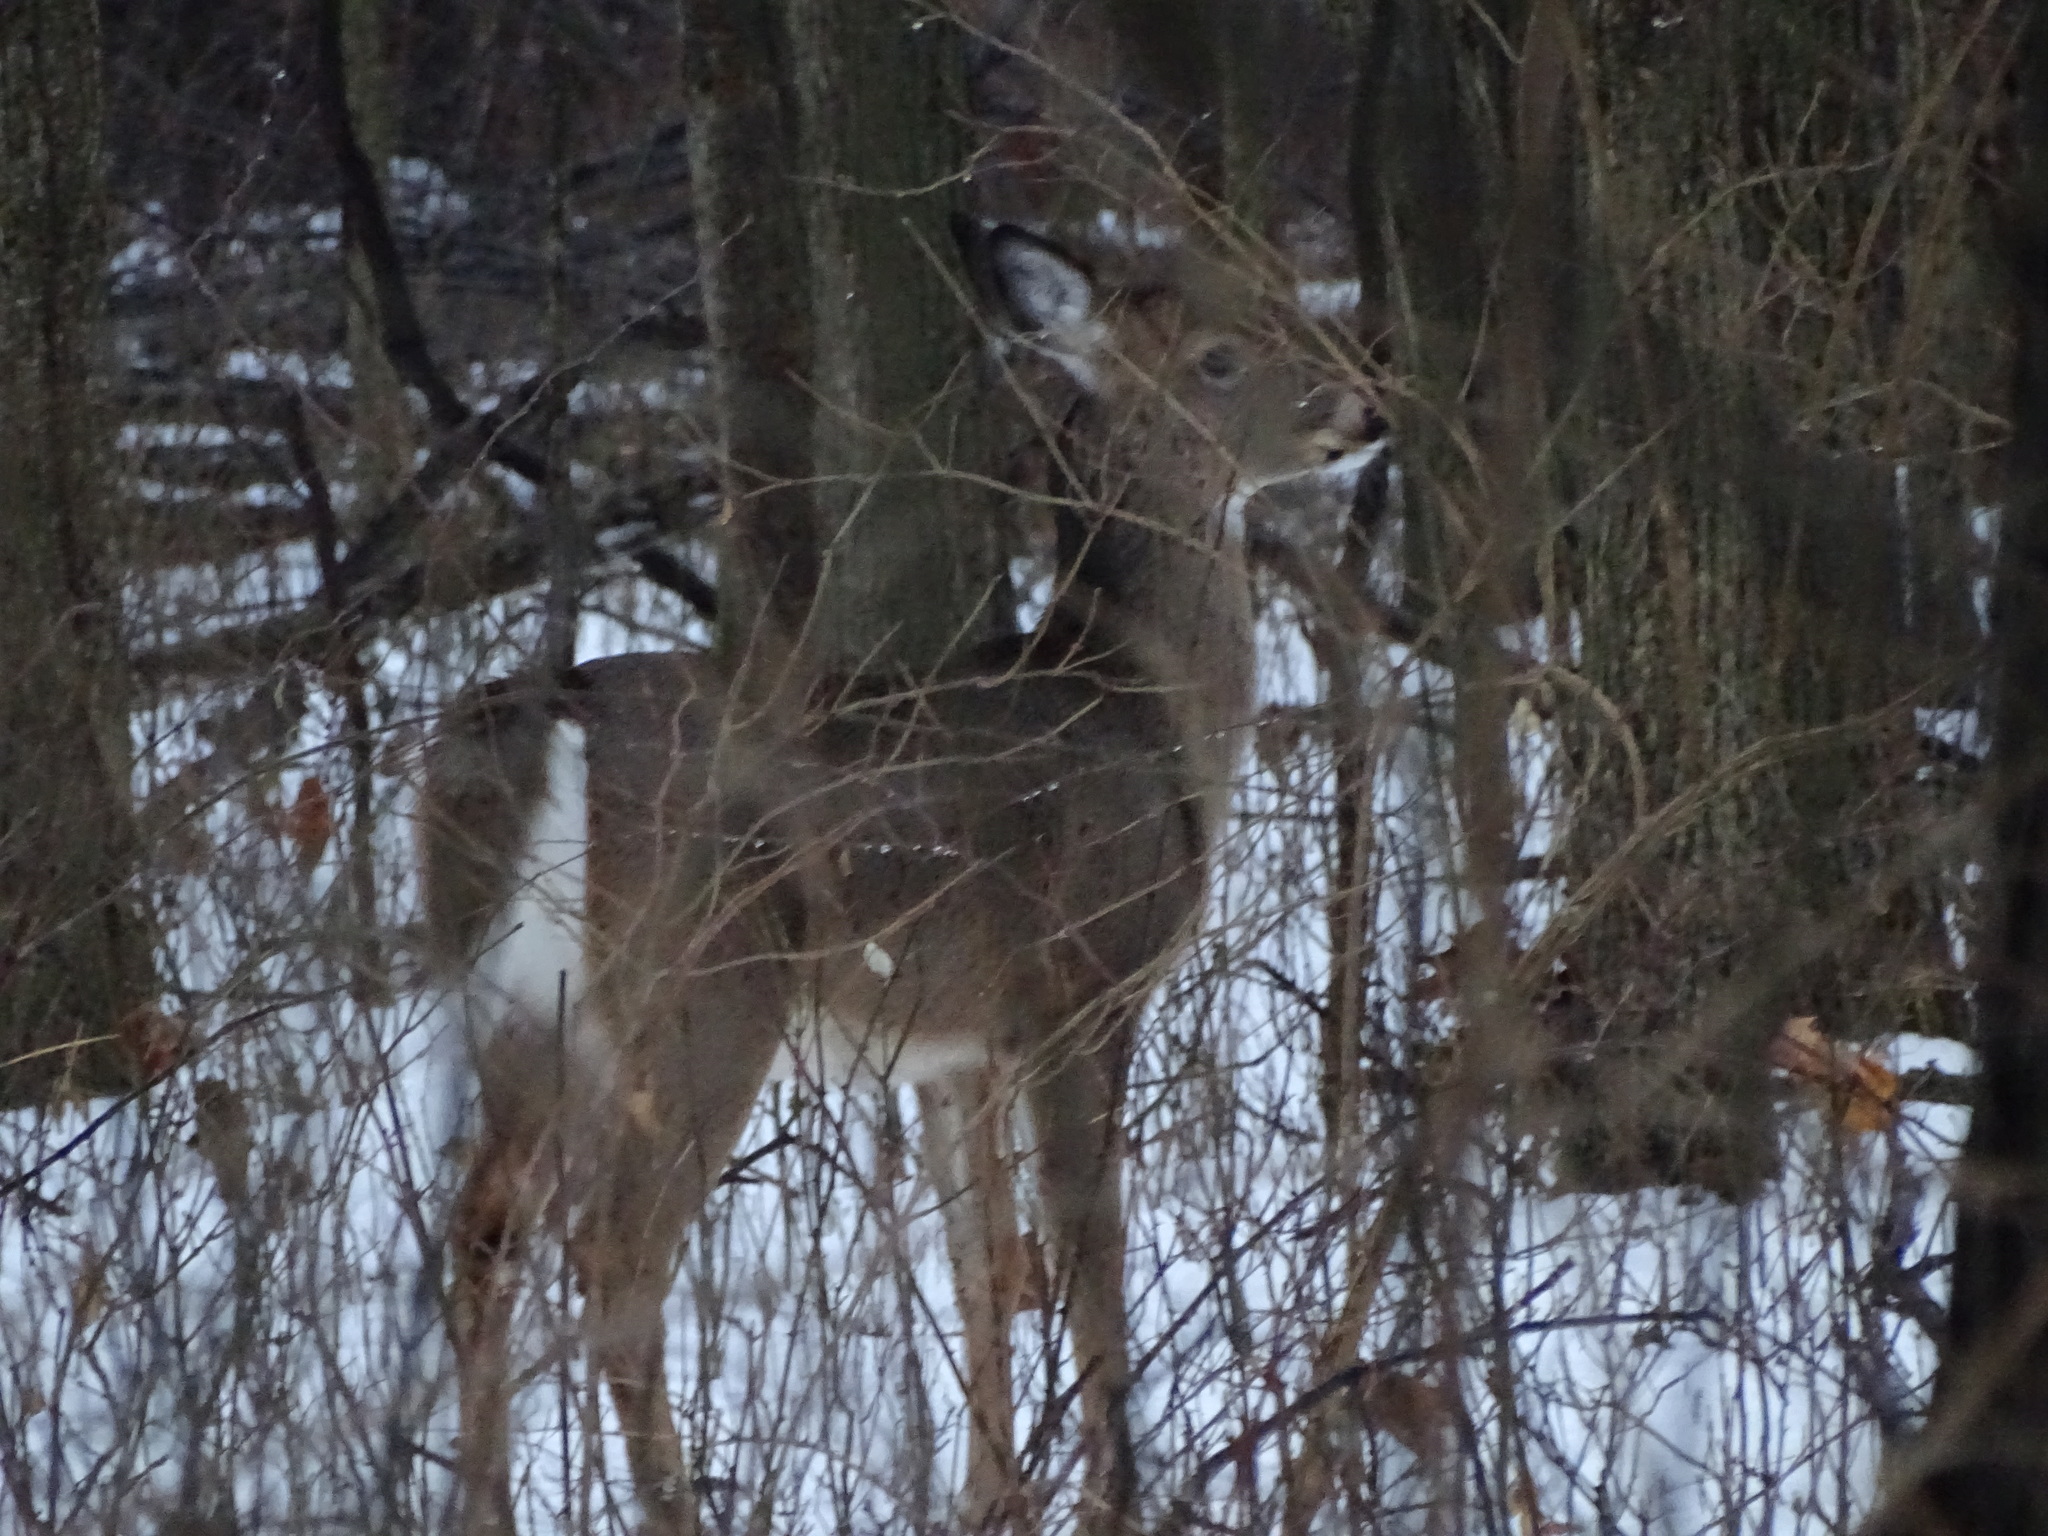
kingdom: Animalia
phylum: Chordata
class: Mammalia
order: Artiodactyla
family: Cervidae
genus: Odocoileus
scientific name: Odocoileus virginianus
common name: White-tailed deer
